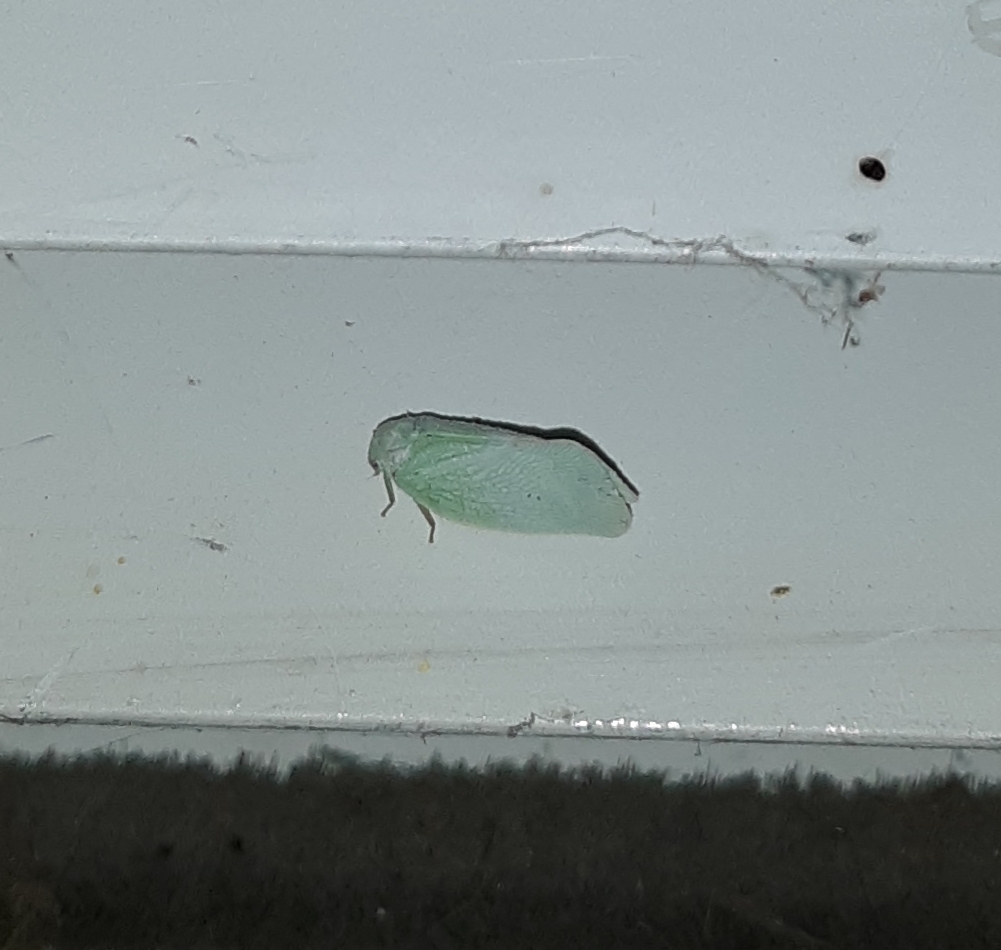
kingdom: Animalia
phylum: Arthropoda
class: Insecta
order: Hemiptera
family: Flatidae
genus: Flatormenis
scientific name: Flatormenis proxima
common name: Northern flatid planthopper
